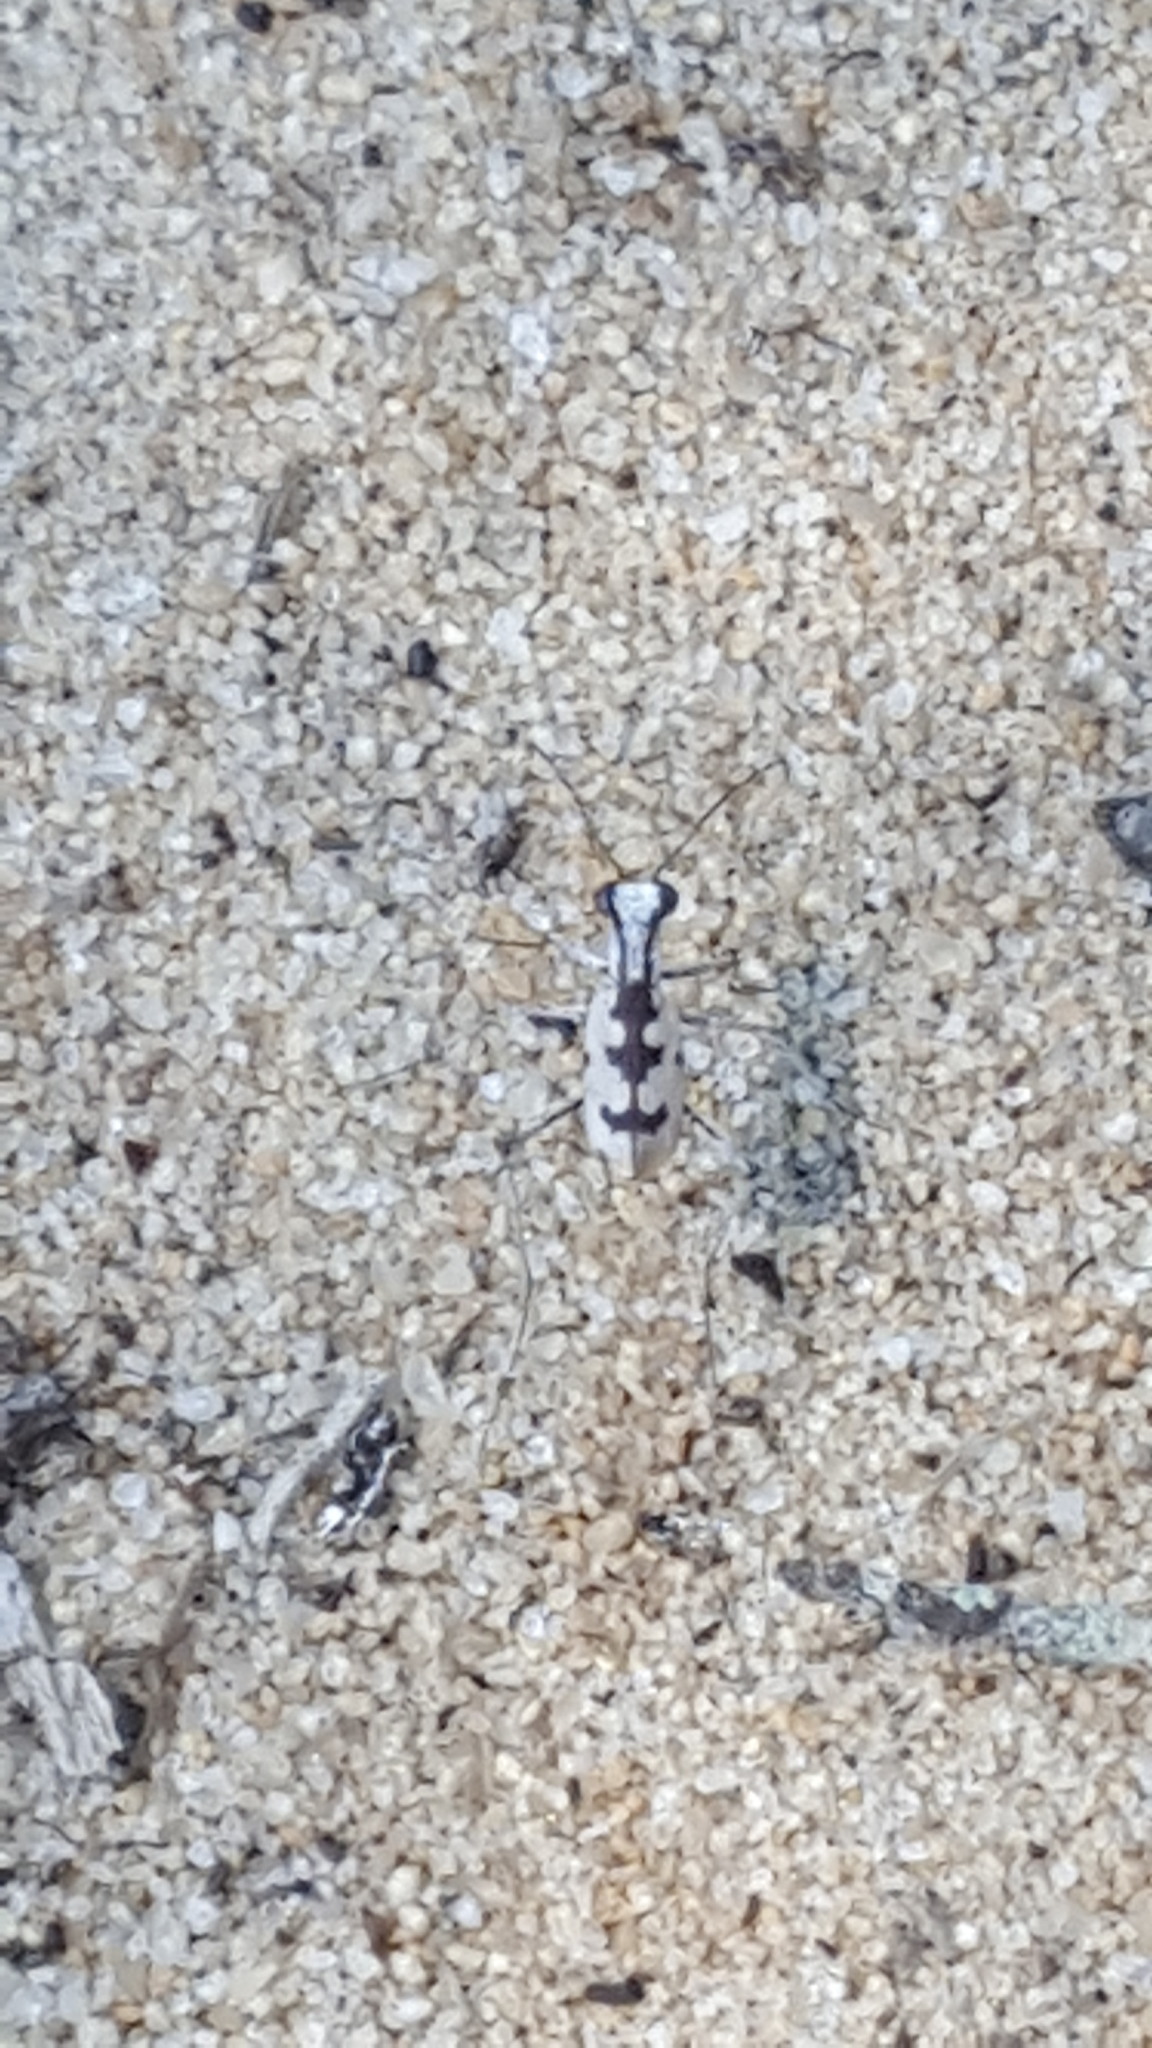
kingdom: Animalia
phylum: Arthropoda
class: Insecta
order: Coleoptera
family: Carabidae
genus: Ellipsoptera
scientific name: Ellipsoptera gratiosa
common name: Whitish tiger beetle
